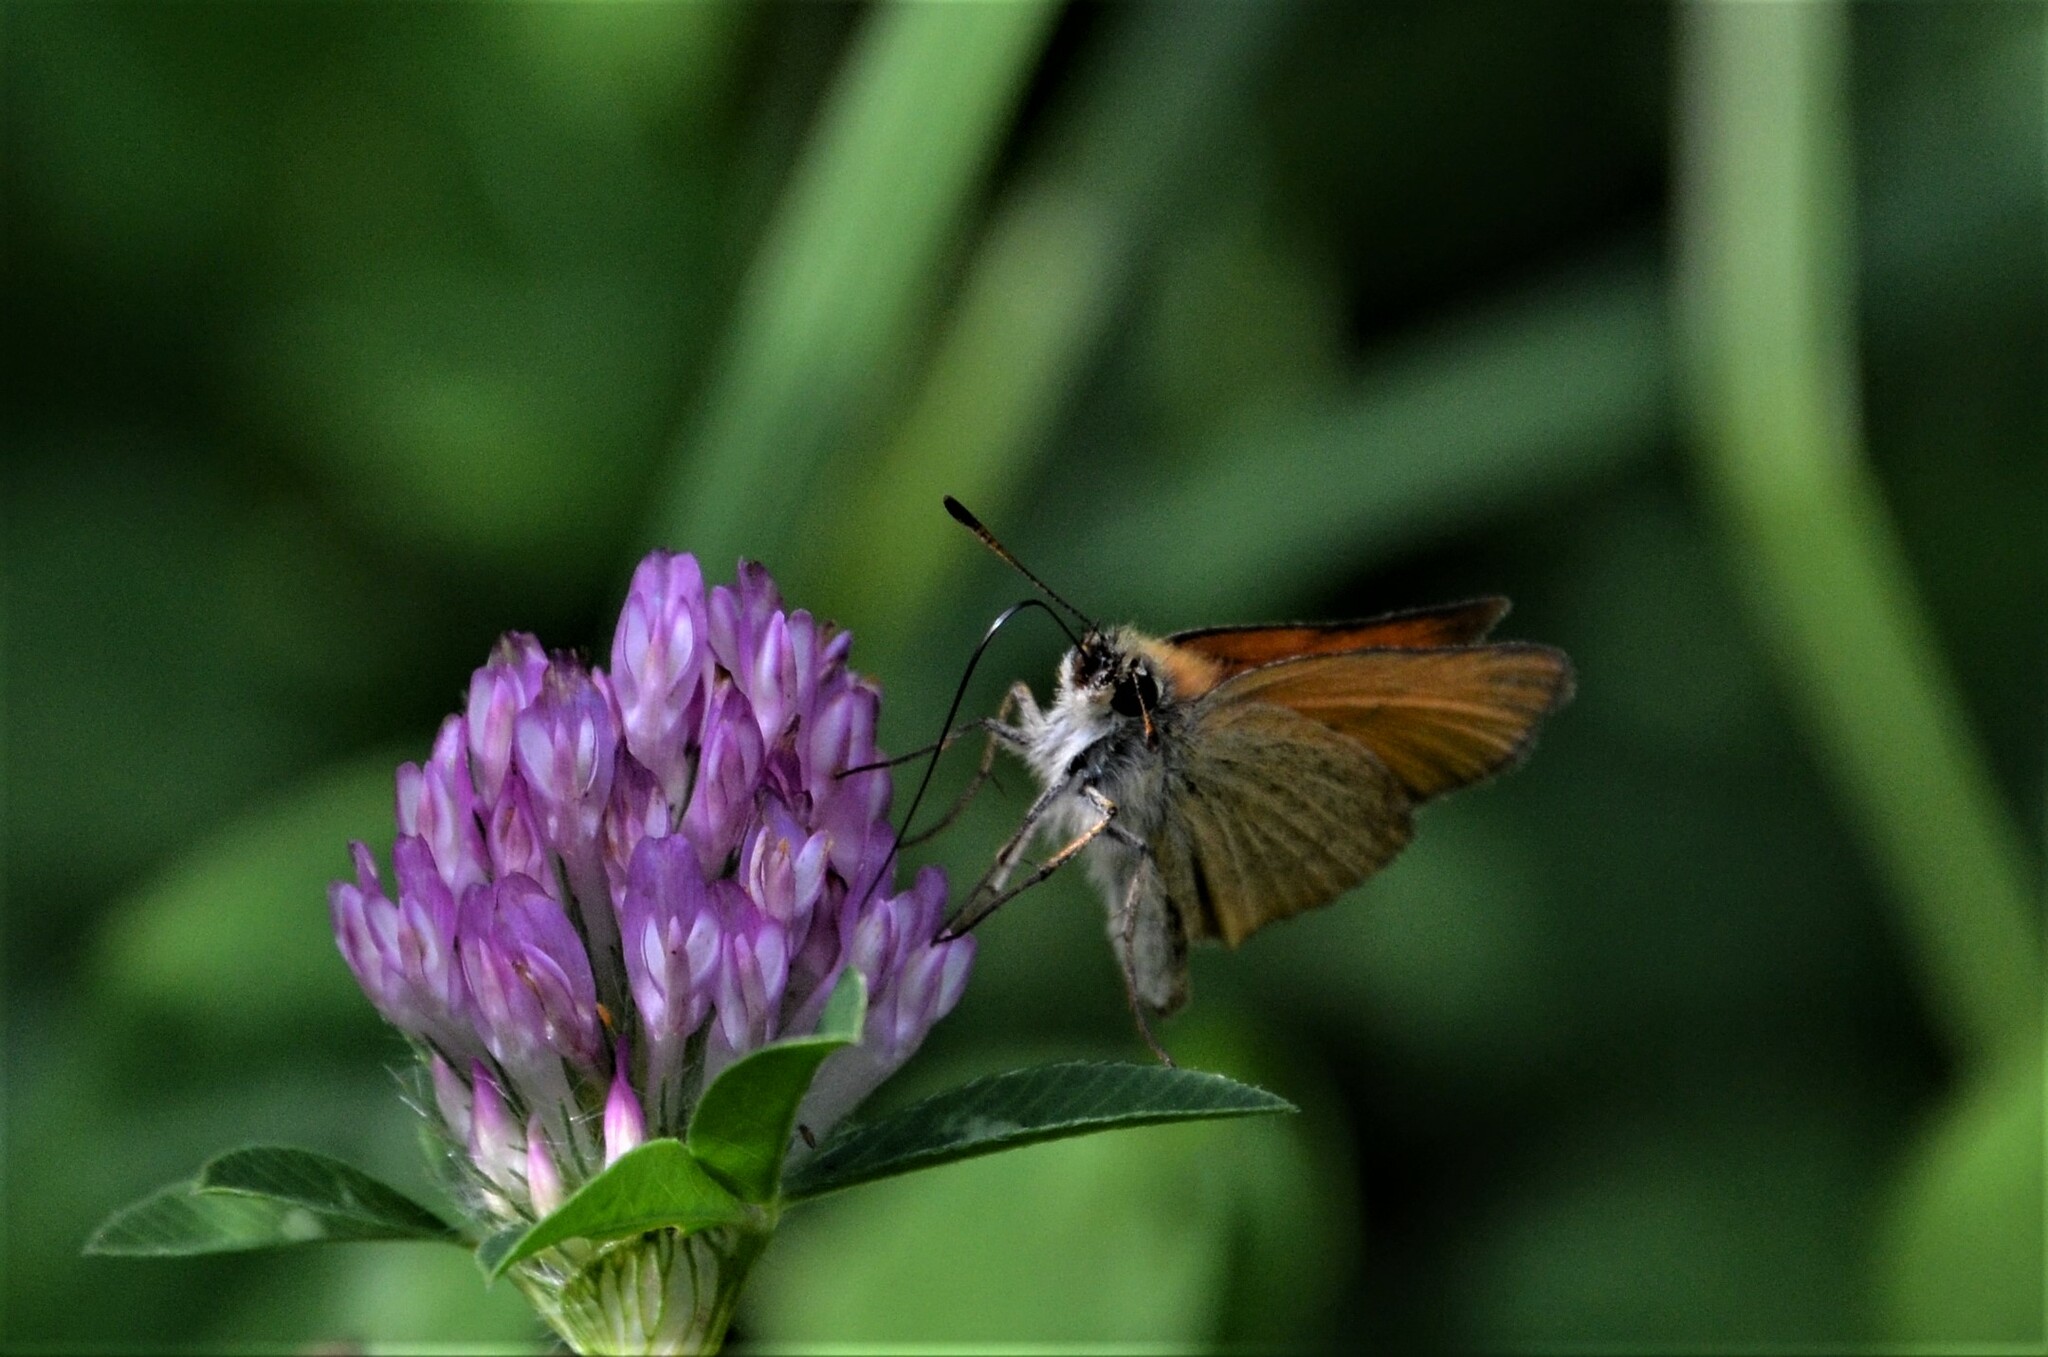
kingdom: Animalia
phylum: Arthropoda
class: Insecta
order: Lepidoptera
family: Hesperiidae
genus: Thymelicus
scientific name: Thymelicus lineola
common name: Essex skipper
